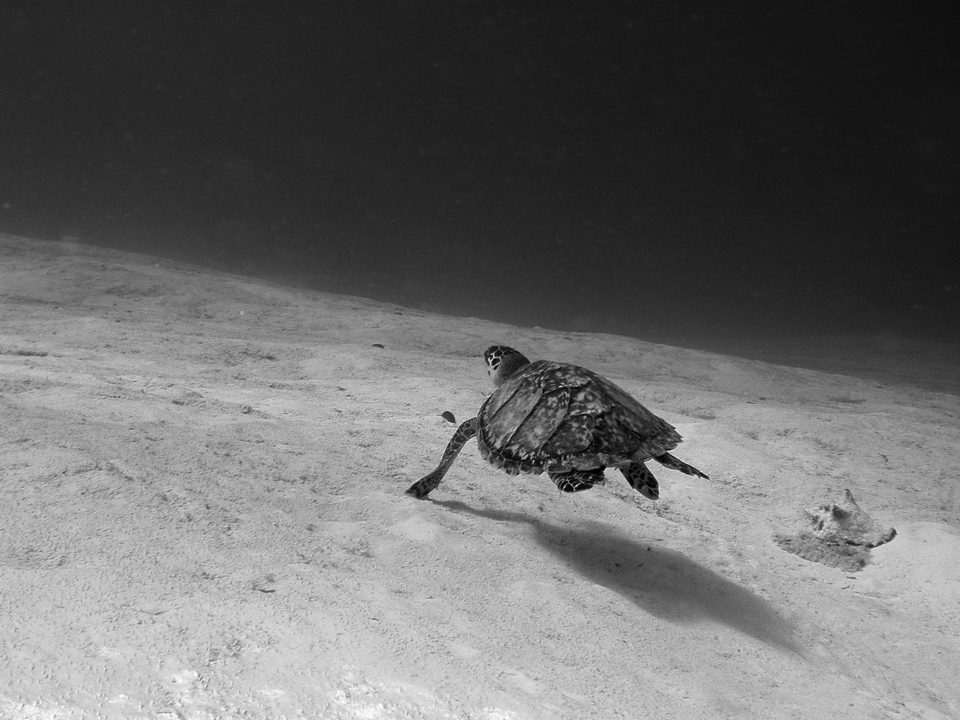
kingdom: Animalia
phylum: Chordata
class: Testudines
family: Cheloniidae
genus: Eretmochelys
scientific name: Eretmochelys imbricata
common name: Hawksbill turtle
